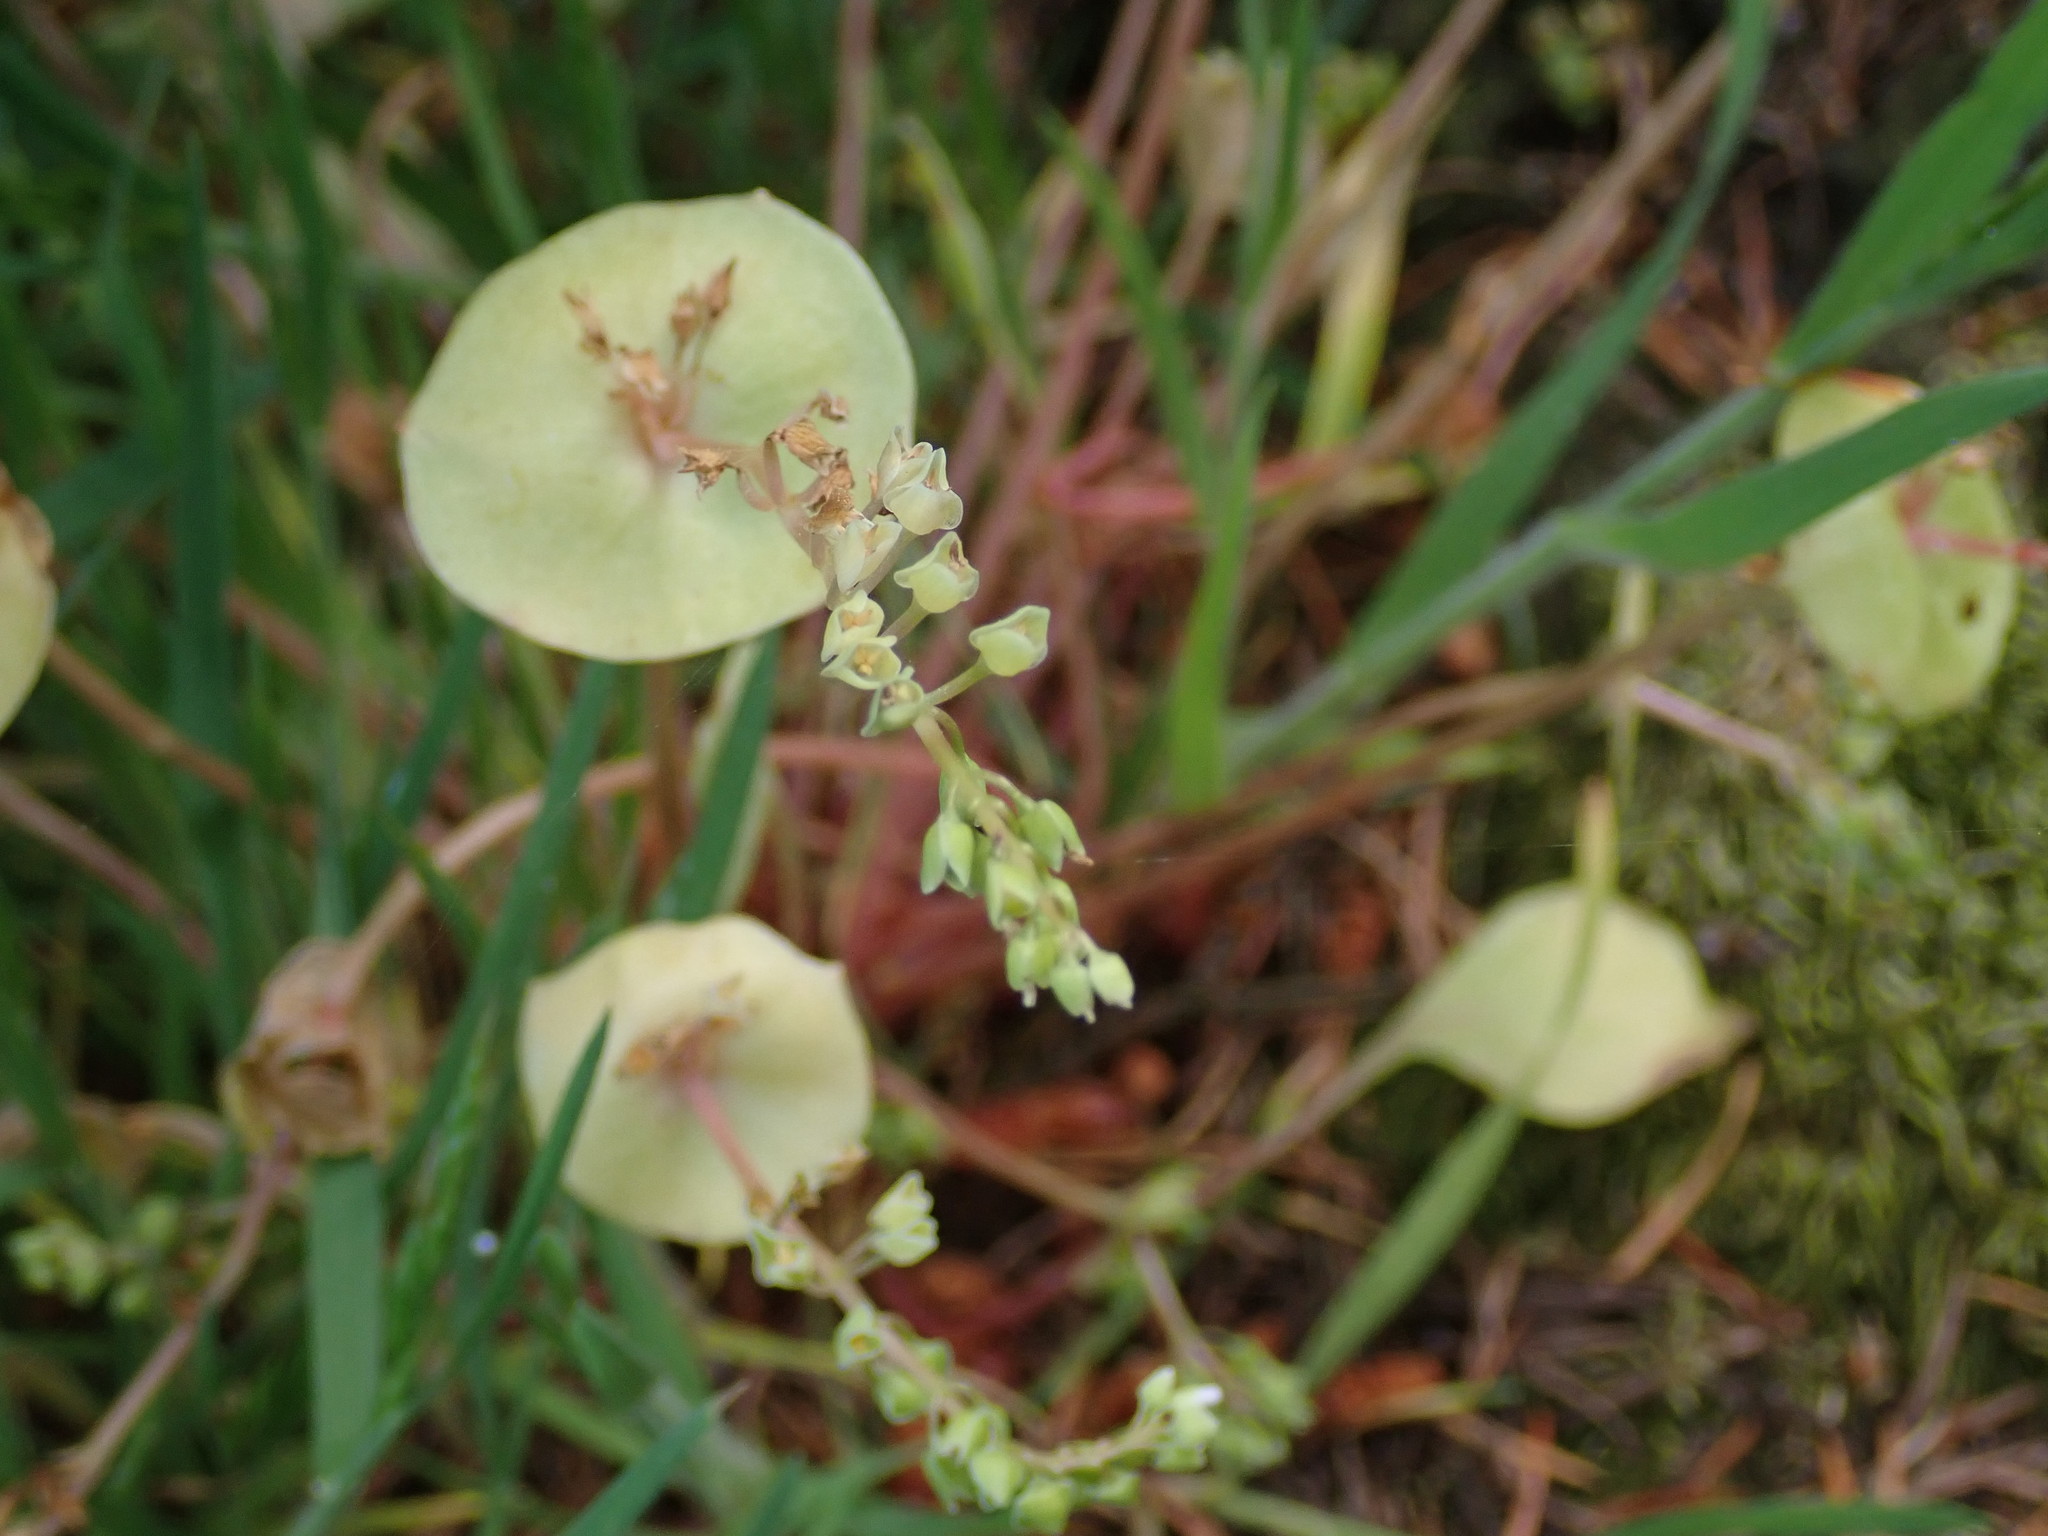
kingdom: Plantae
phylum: Tracheophyta
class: Magnoliopsida
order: Caryophyllales
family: Montiaceae
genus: Claytonia
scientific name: Claytonia perfoliata
